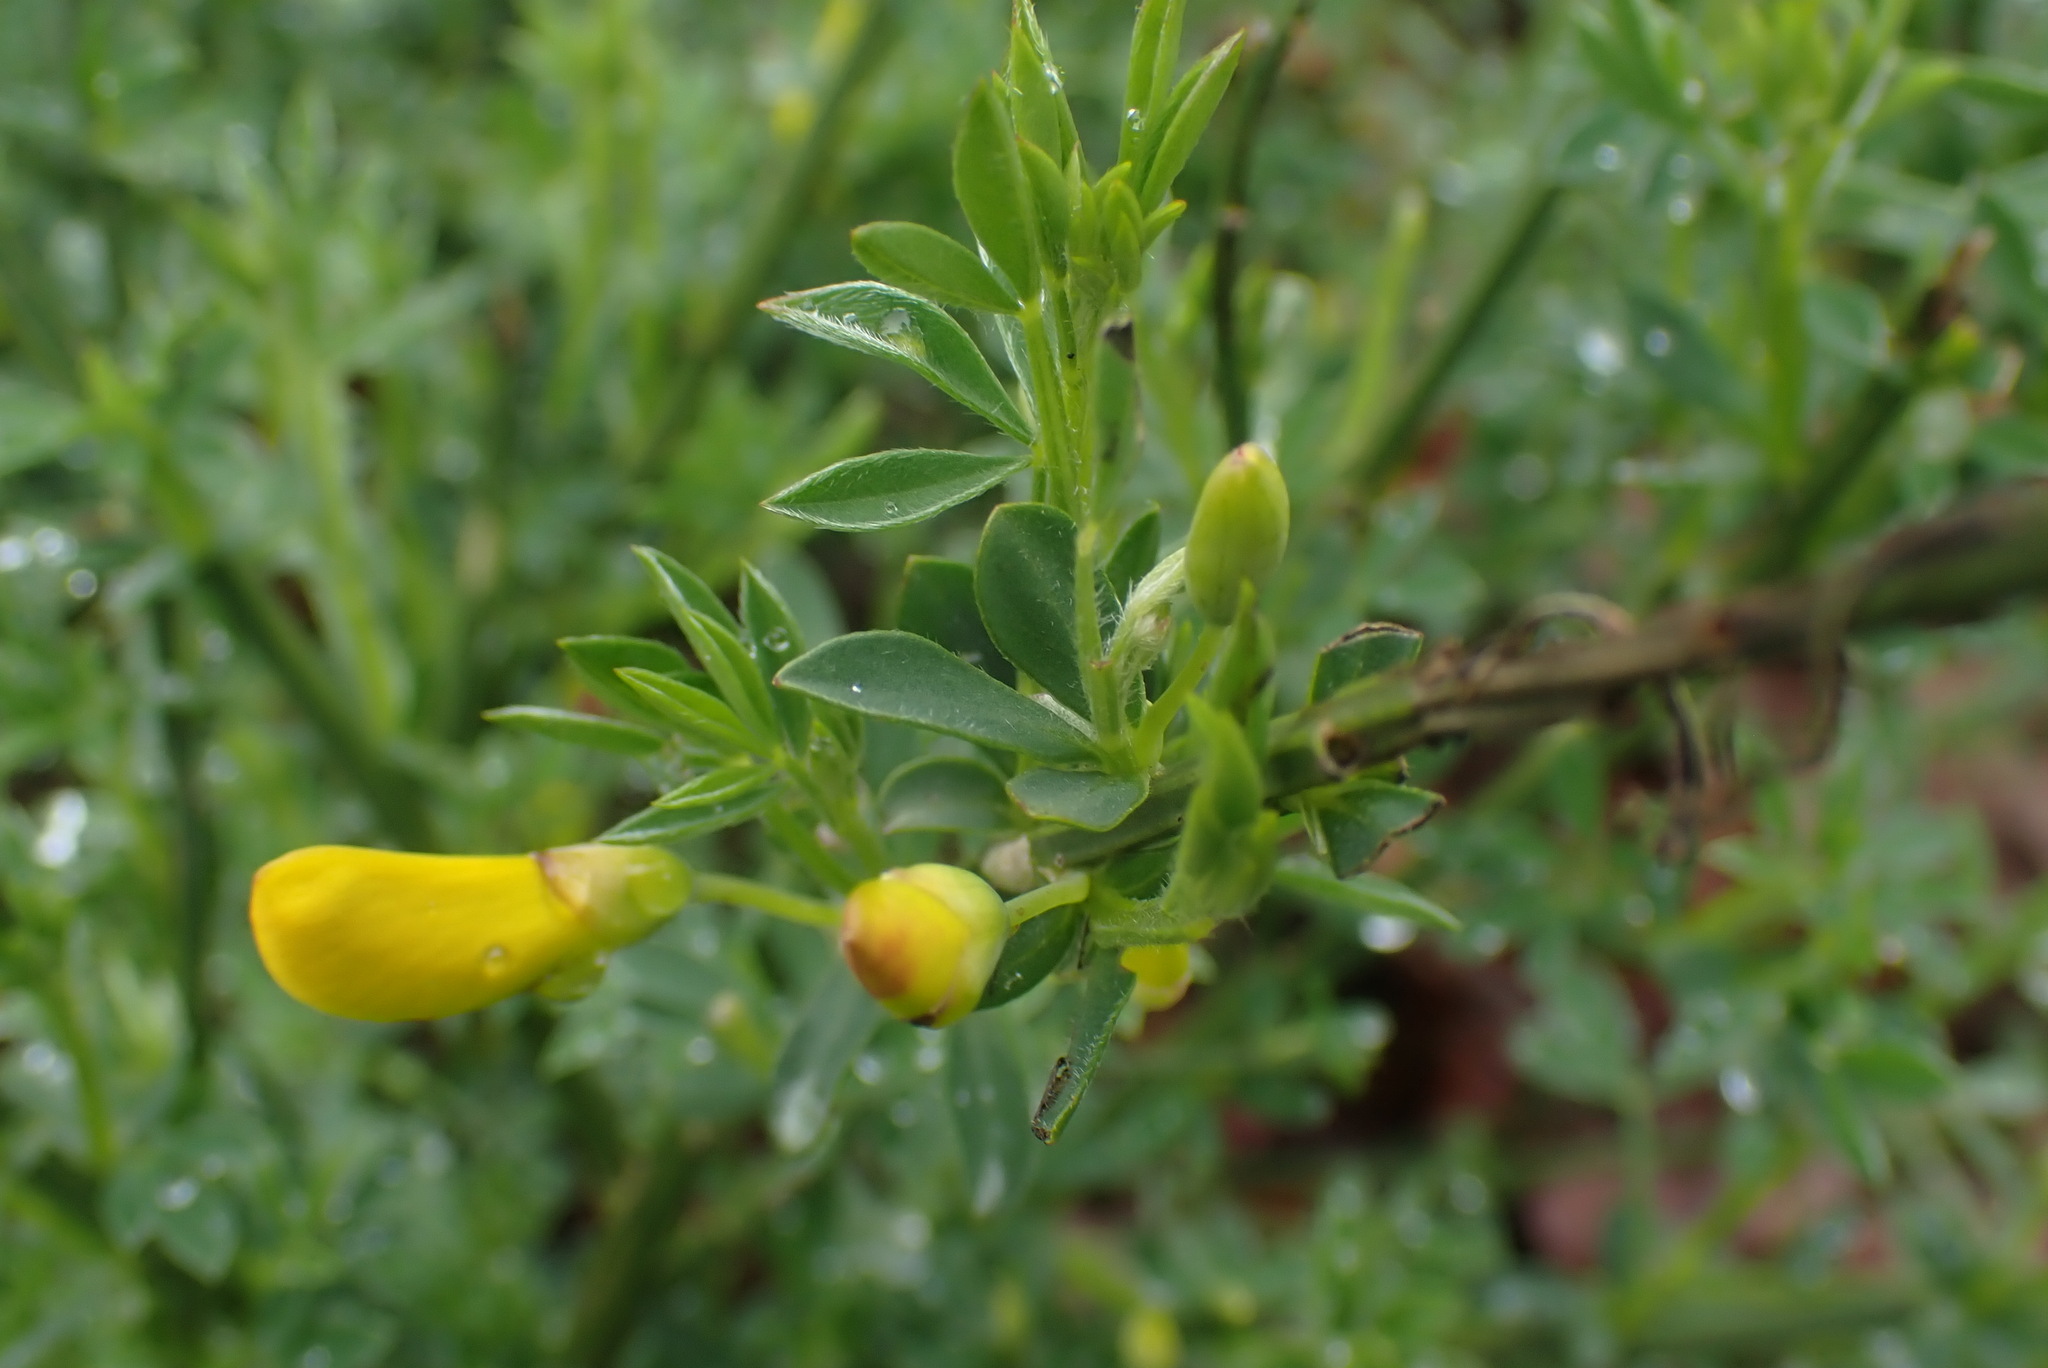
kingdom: Plantae
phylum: Tracheophyta
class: Magnoliopsida
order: Fabales
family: Fabaceae
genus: Cytisus
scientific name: Cytisus scoparius
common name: Scotch broom
